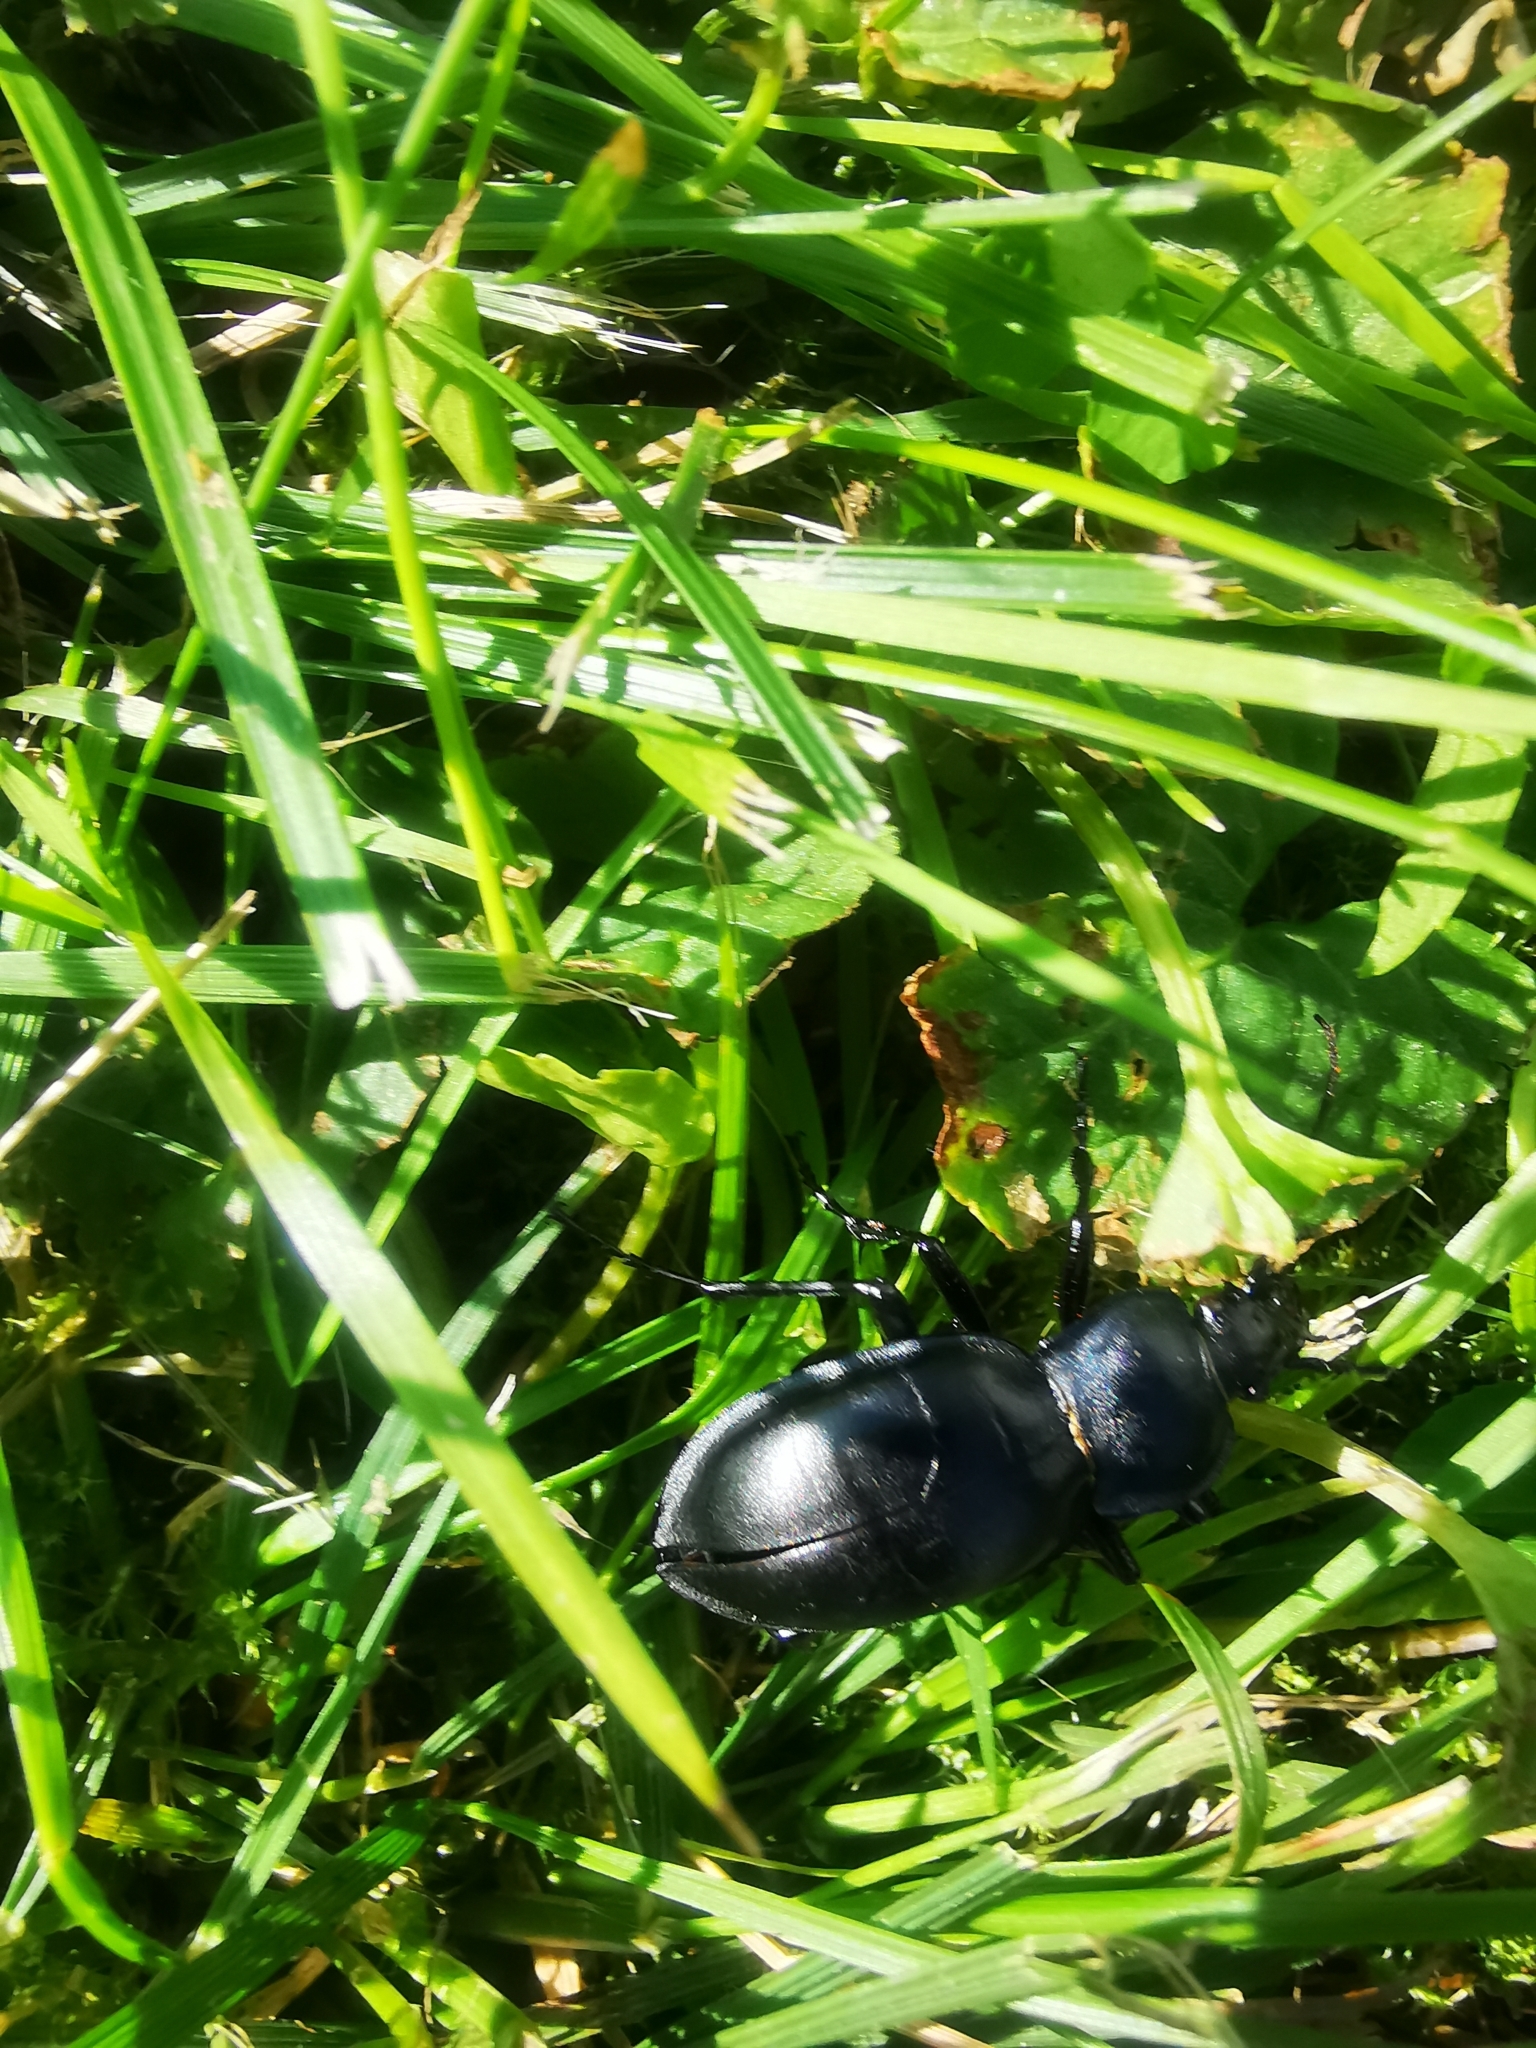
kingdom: Animalia
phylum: Arthropoda
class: Insecta
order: Coleoptera
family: Carabidae
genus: Carabus
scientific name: Carabus glabratus
